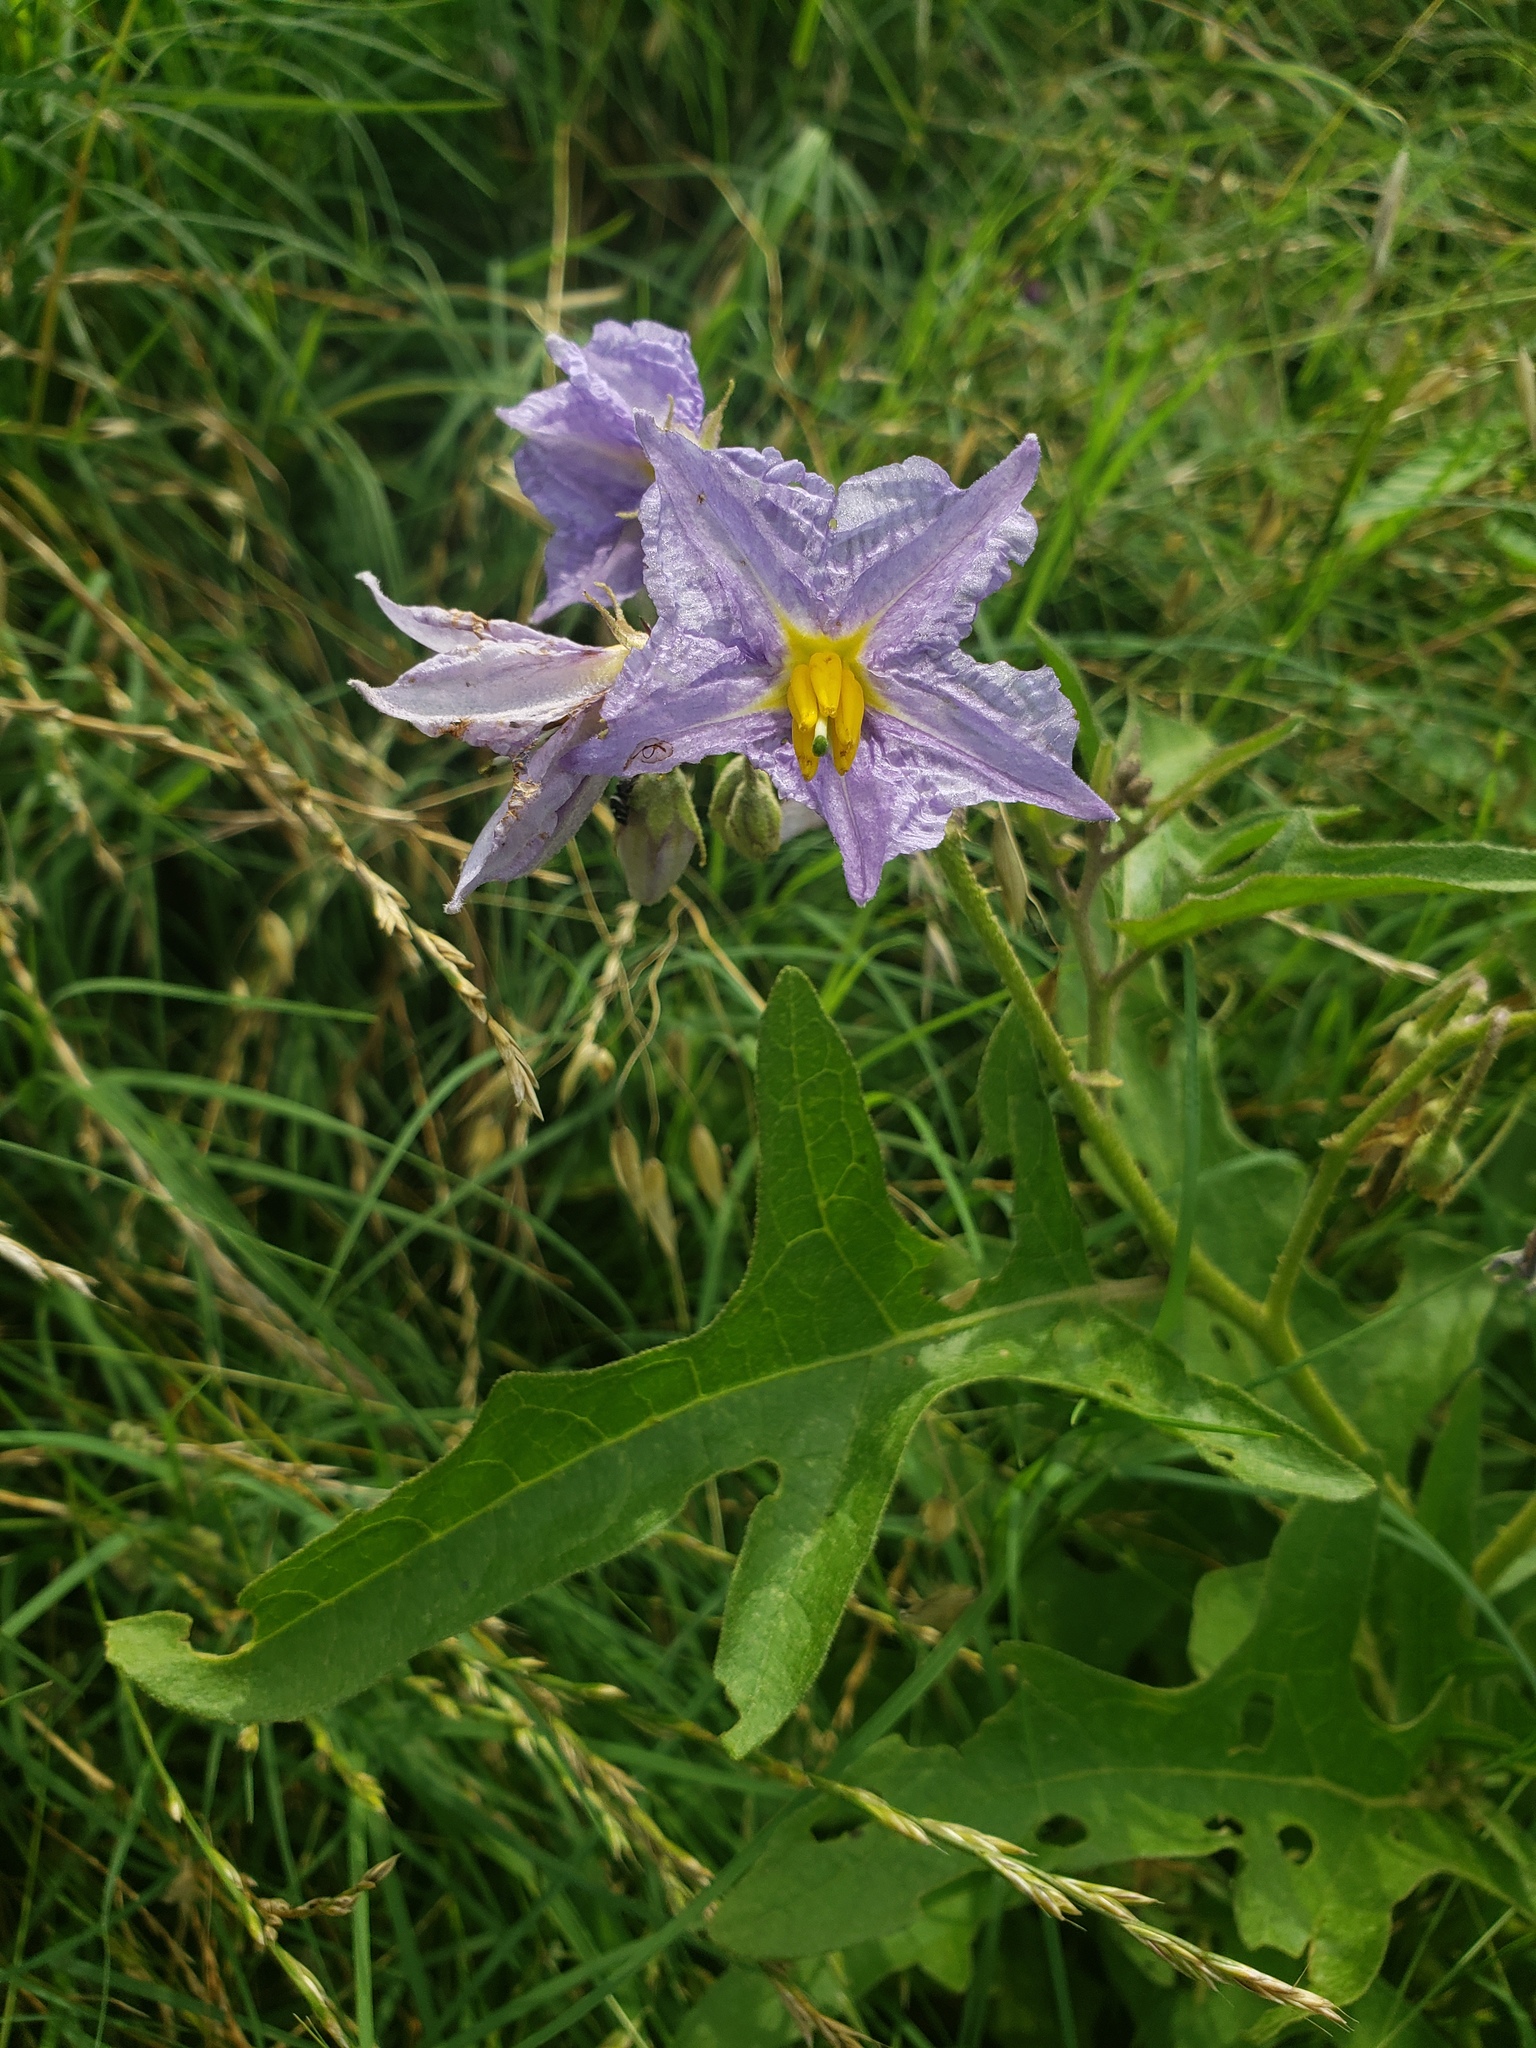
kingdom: Plantae
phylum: Tracheophyta
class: Magnoliopsida
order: Solanales
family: Solanaceae
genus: Solanum
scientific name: Solanum dimidiatum
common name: Carolina horse-nettle
